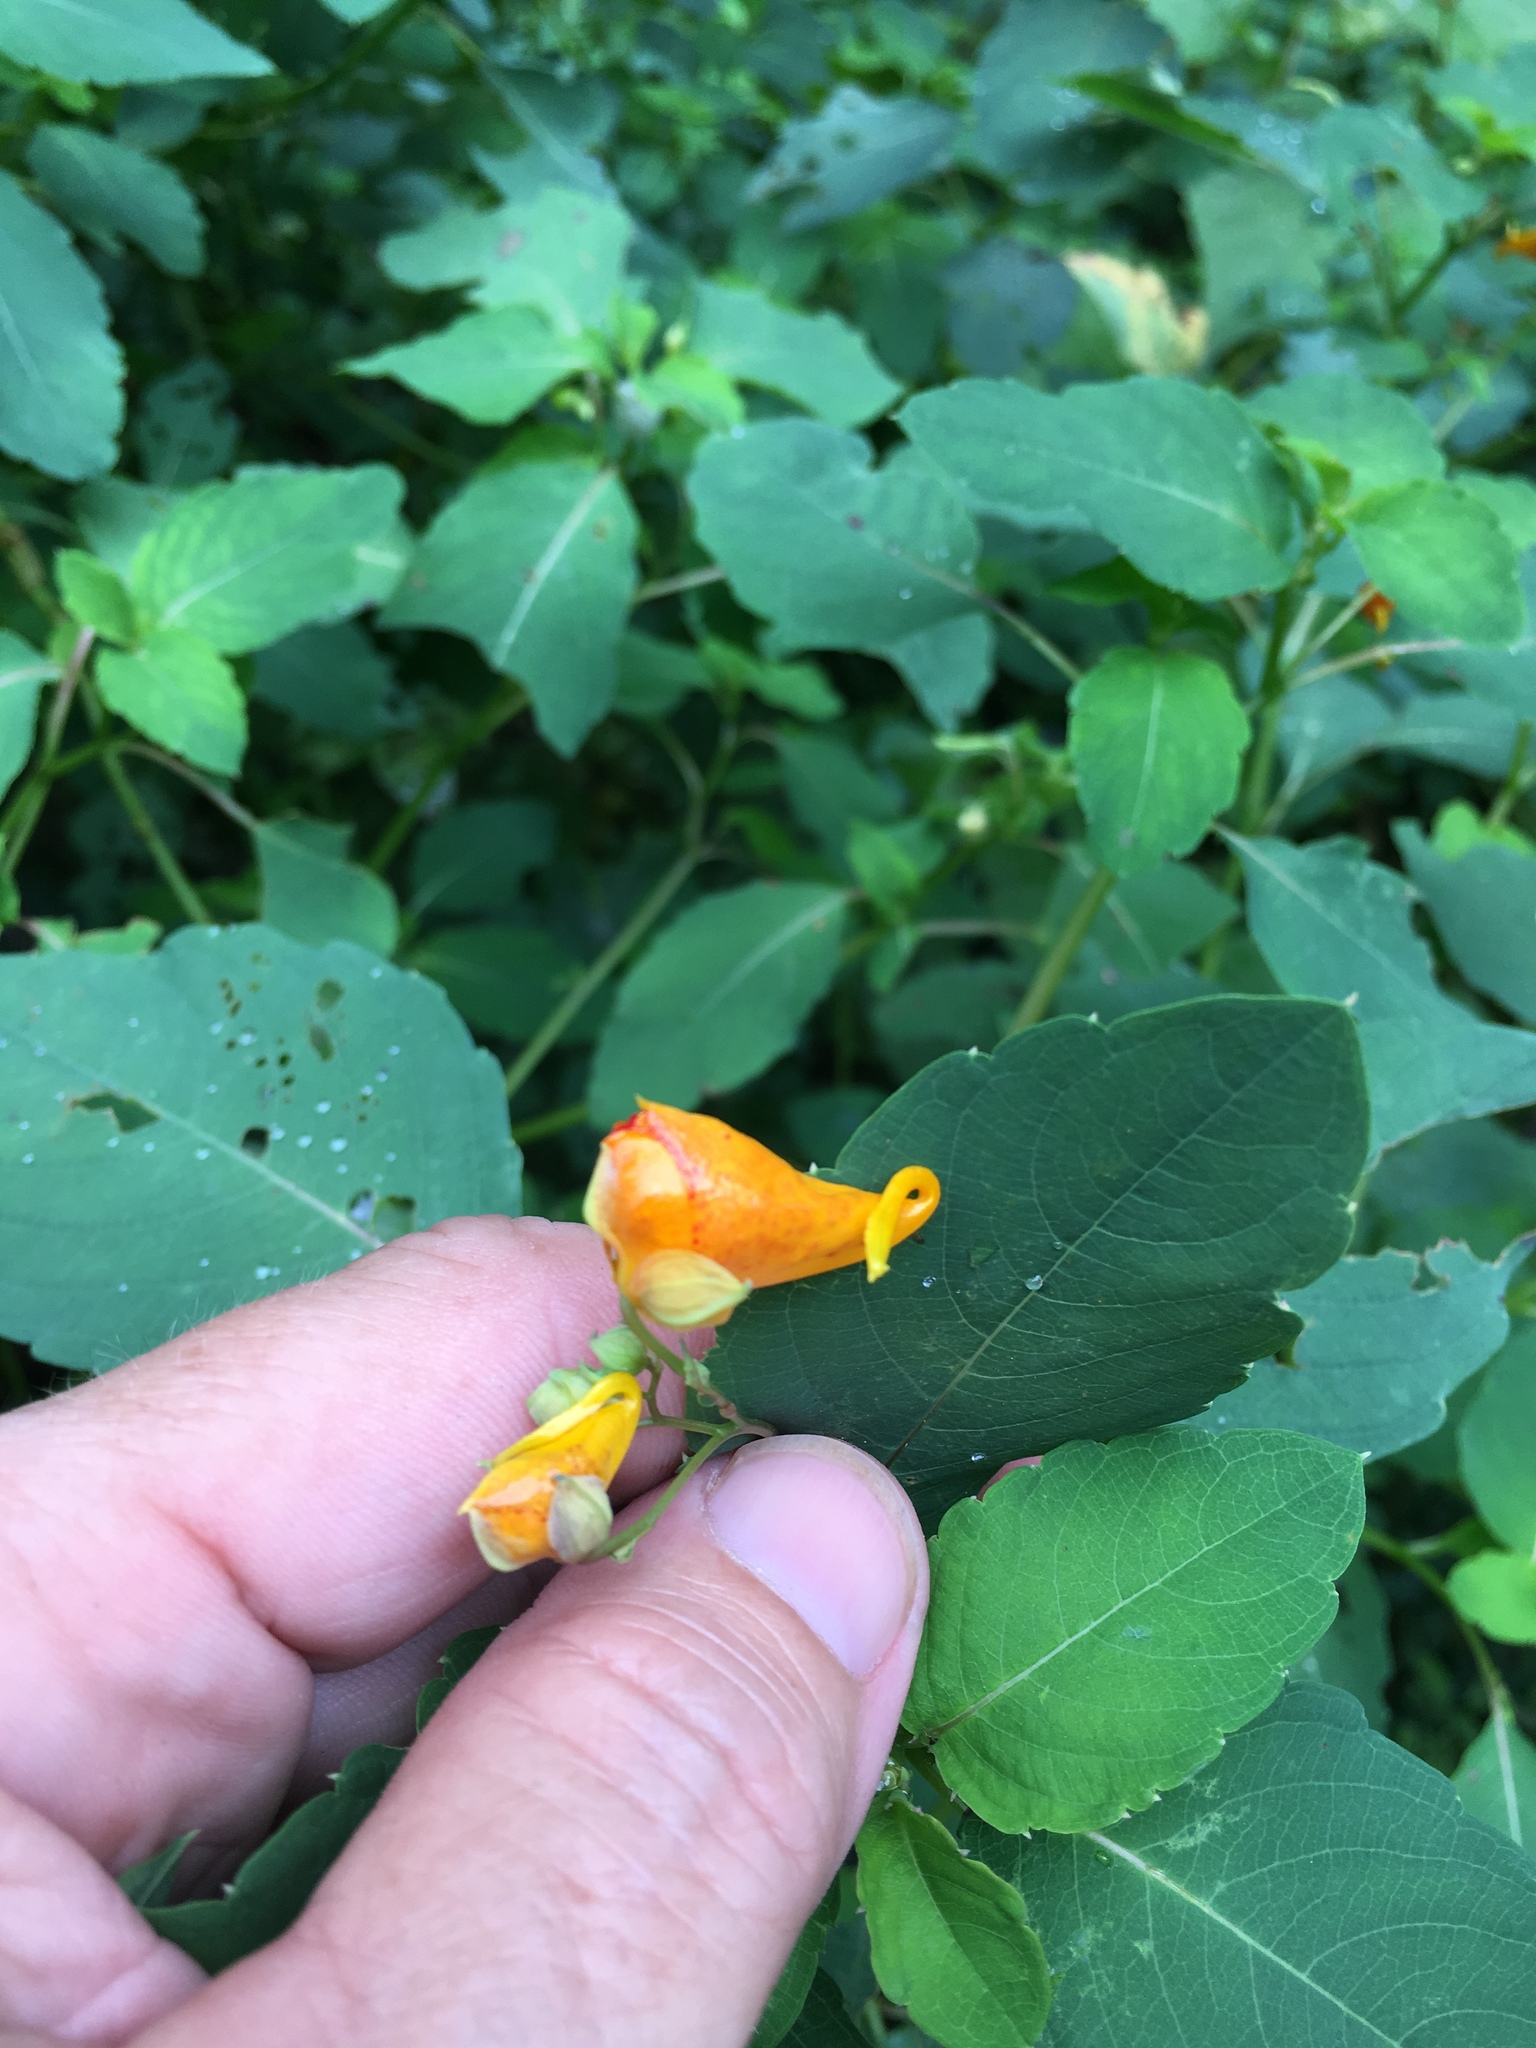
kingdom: Plantae
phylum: Tracheophyta
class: Magnoliopsida
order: Ericales
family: Balsaminaceae
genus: Impatiens
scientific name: Impatiens capensis
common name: Orange balsam
